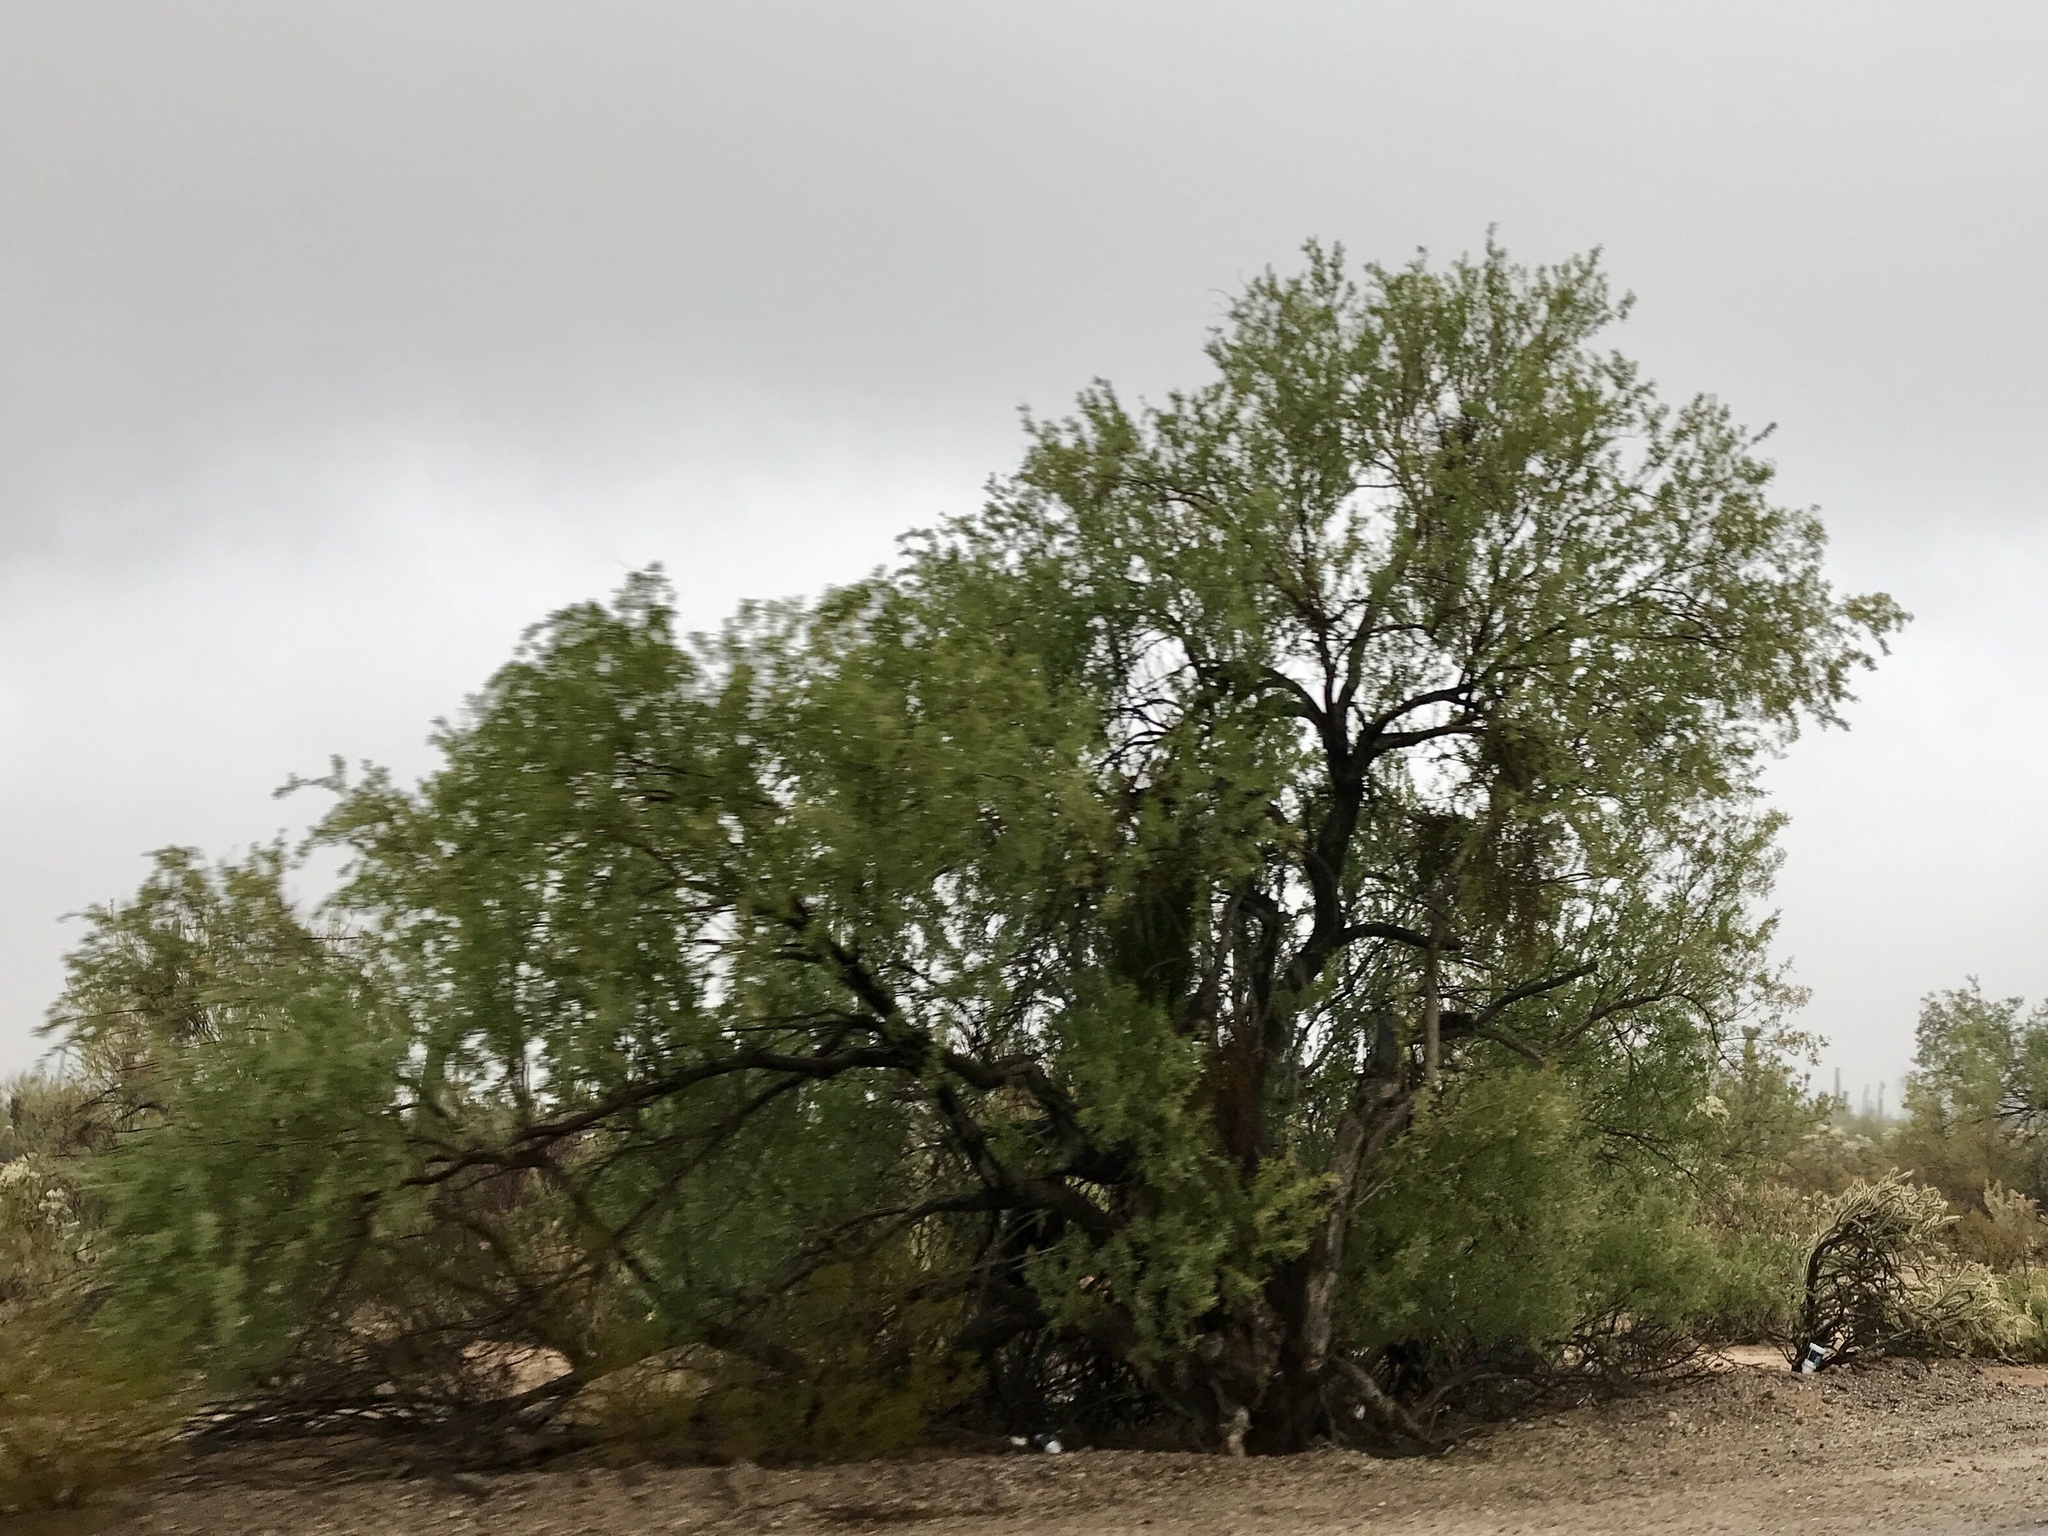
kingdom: Plantae
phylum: Tracheophyta
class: Magnoliopsida
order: Fabales
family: Fabaceae
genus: Olneya
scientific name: Olneya tesota
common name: Desert ironwood
